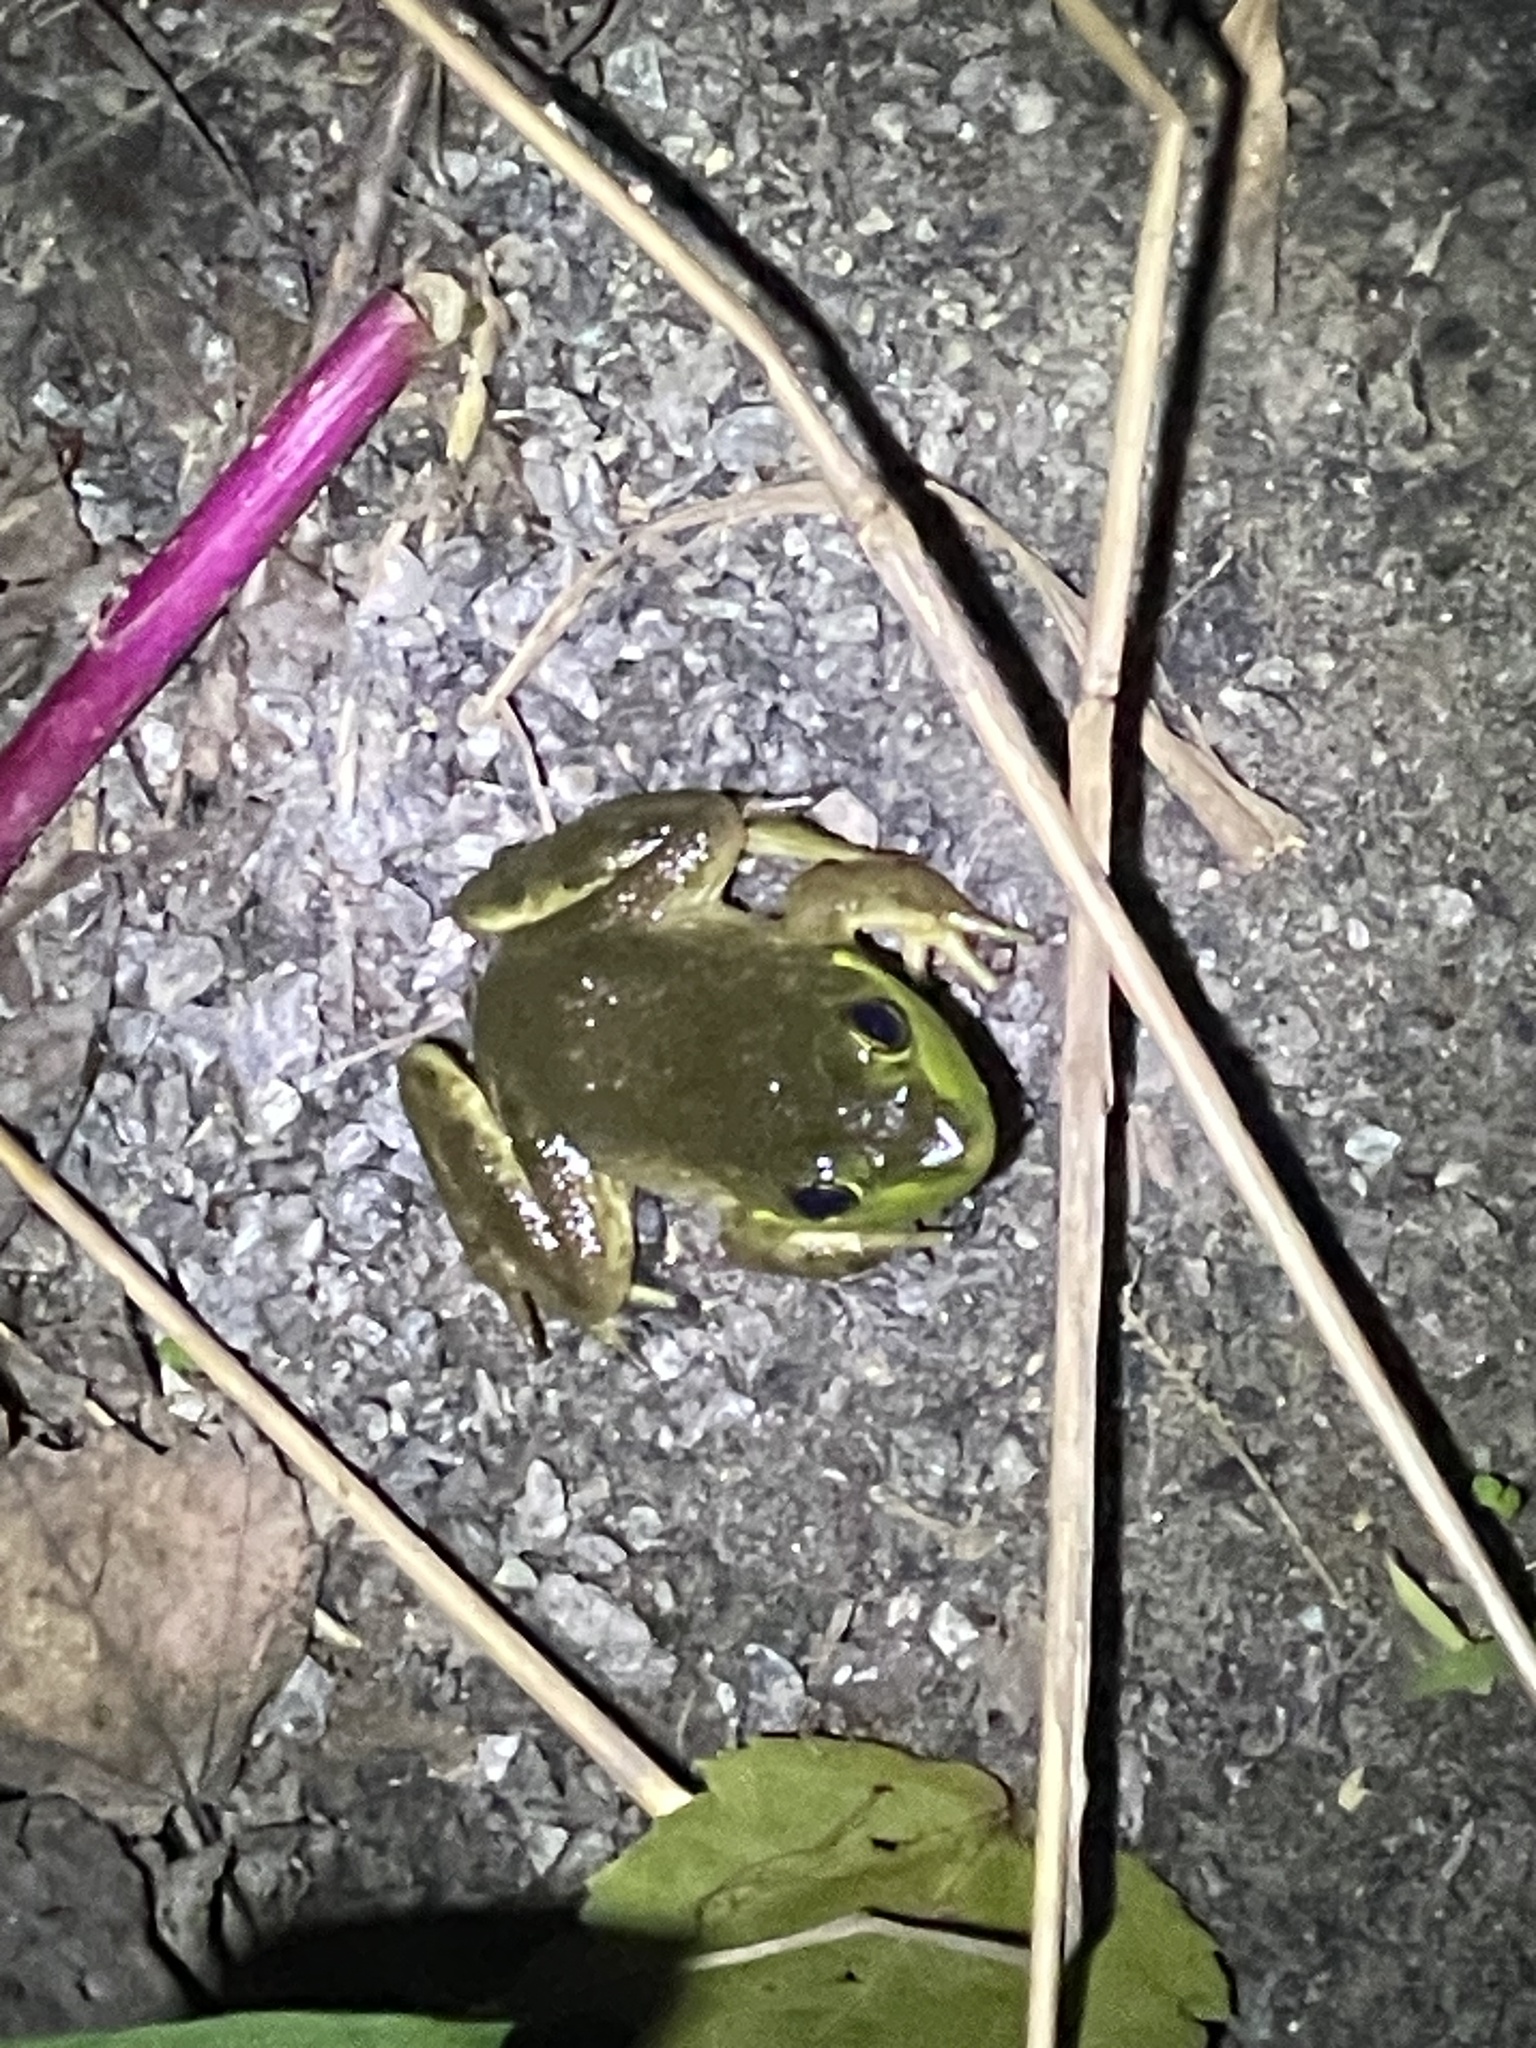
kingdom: Animalia
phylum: Chordata
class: Amphibia
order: Anura
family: Ranidae
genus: Lithobates
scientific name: Lithobates catesbeianus
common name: American bullfrog
